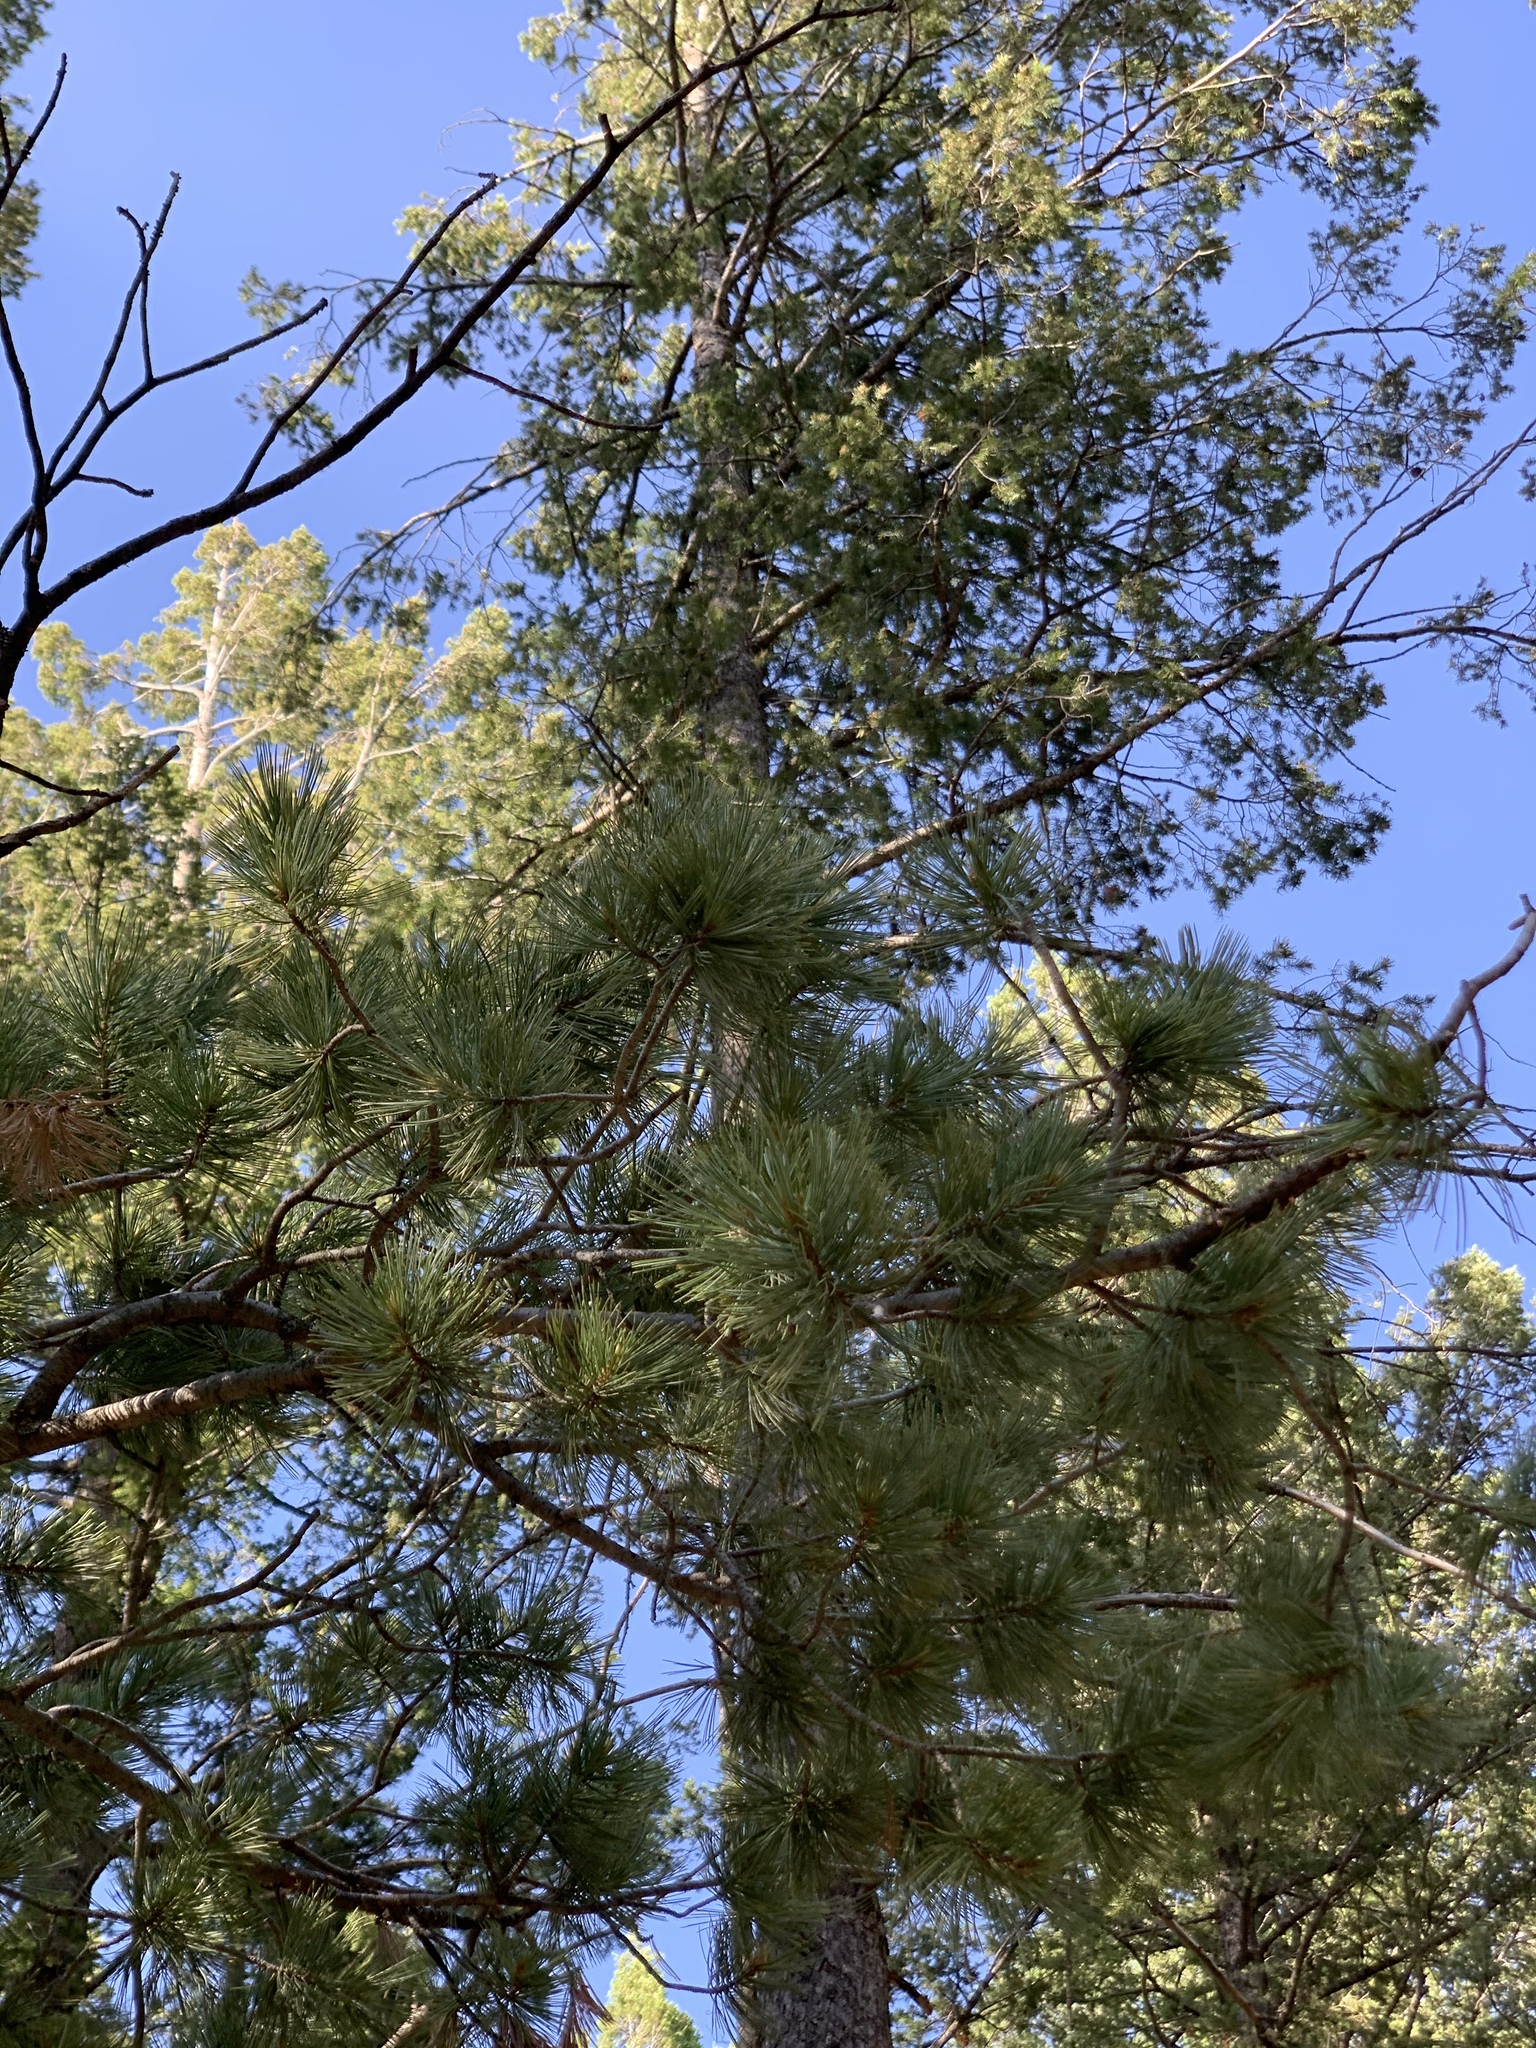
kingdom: Plantae
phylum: Tracheophyta
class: Pinopsida
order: Pinales
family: Pinaceae
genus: Pinus
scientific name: Pinus strobiformis
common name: Southwestern white pine
